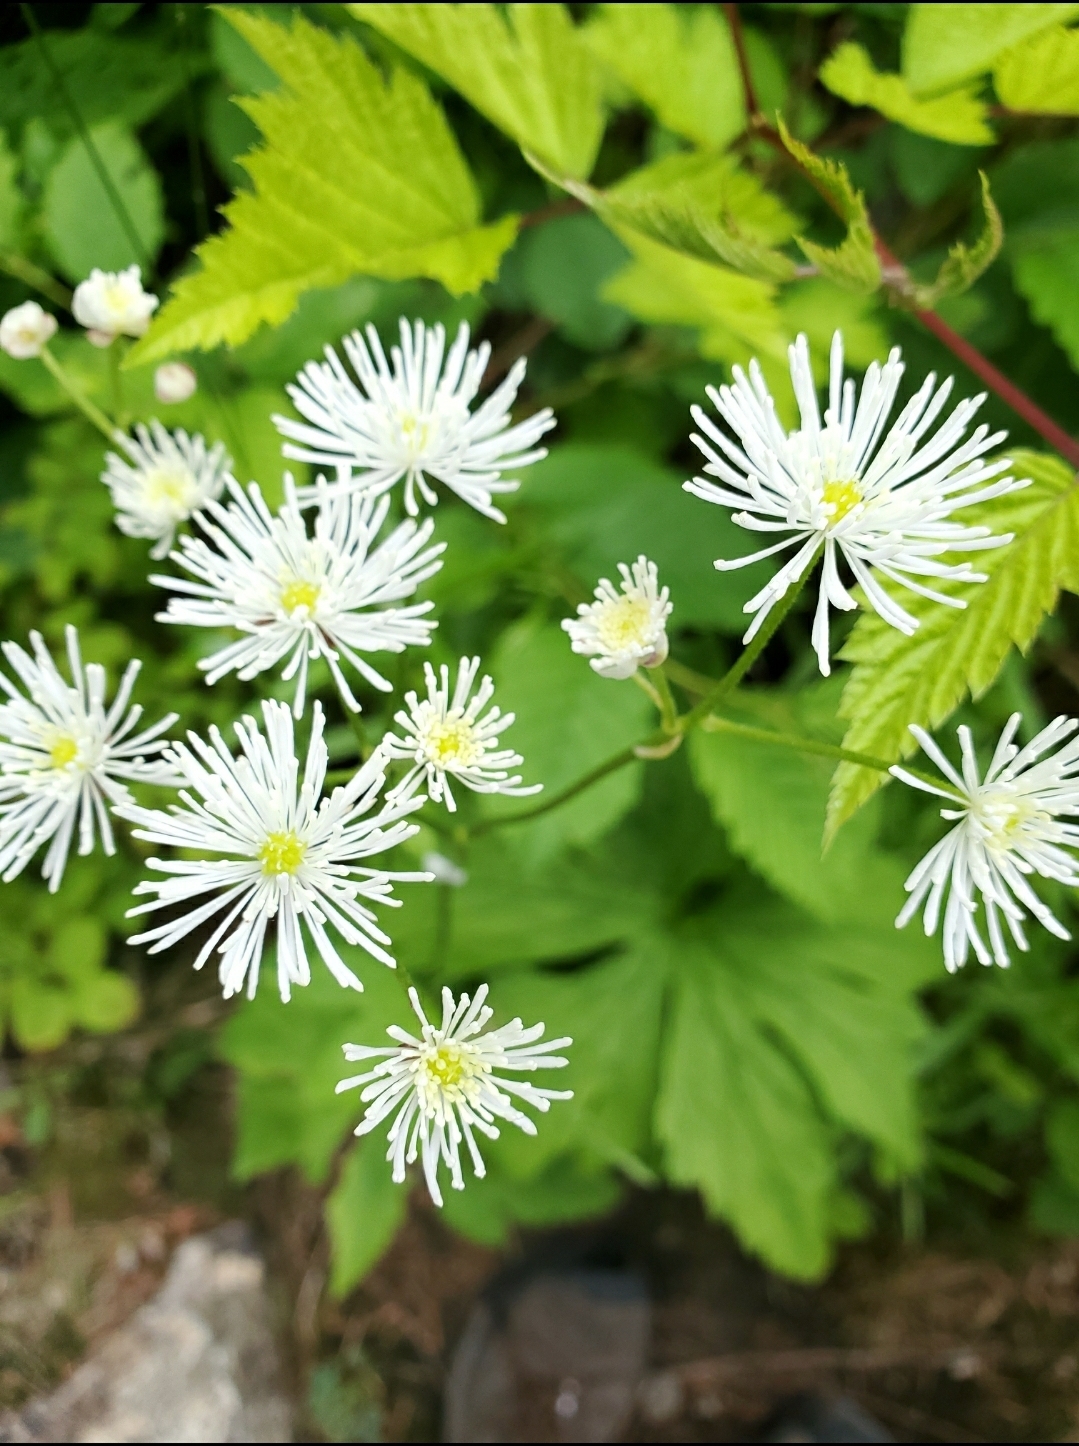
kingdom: Plantae
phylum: Tracheophyta
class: Magnoliopsida
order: Ranunculales
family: Ranunculaceae
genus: Trautvetteria
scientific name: Trautvetteria carolinensis
